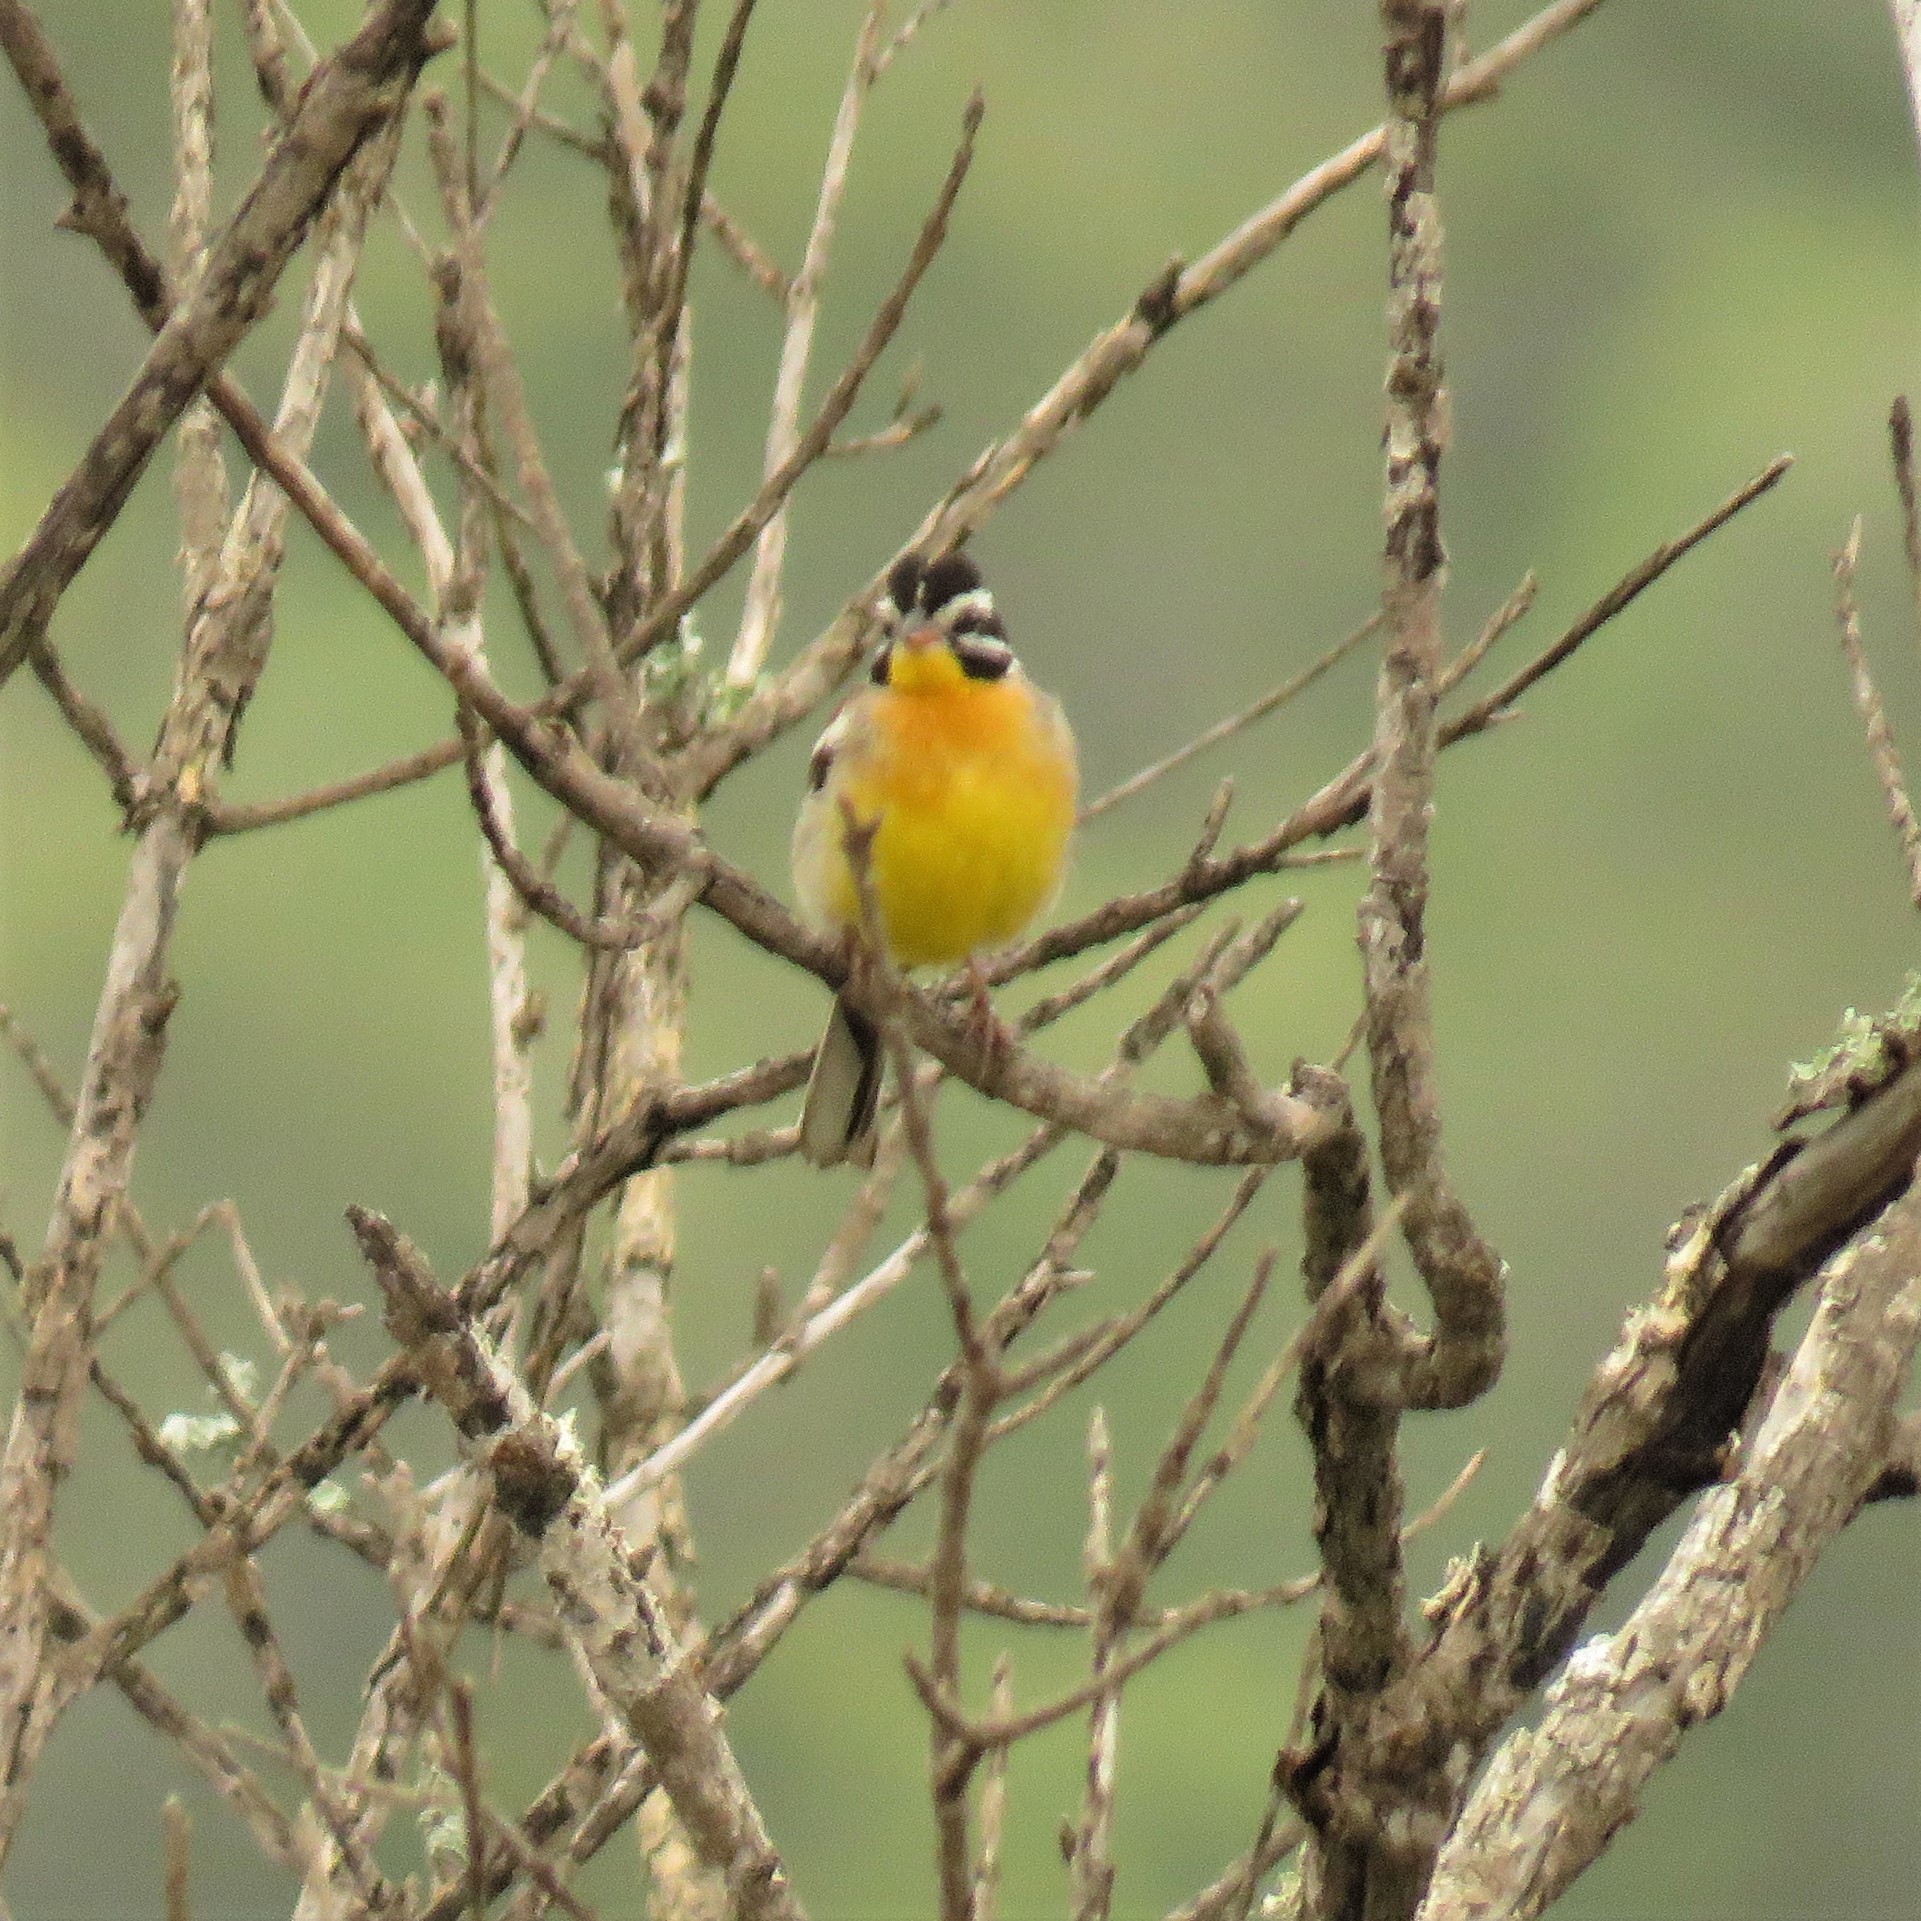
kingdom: Animalia
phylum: Chordata
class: Aves
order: Passeriformes
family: Emberizidae
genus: Emberiza
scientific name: Emberiza flaviventris
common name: Golden-breasted bunting
